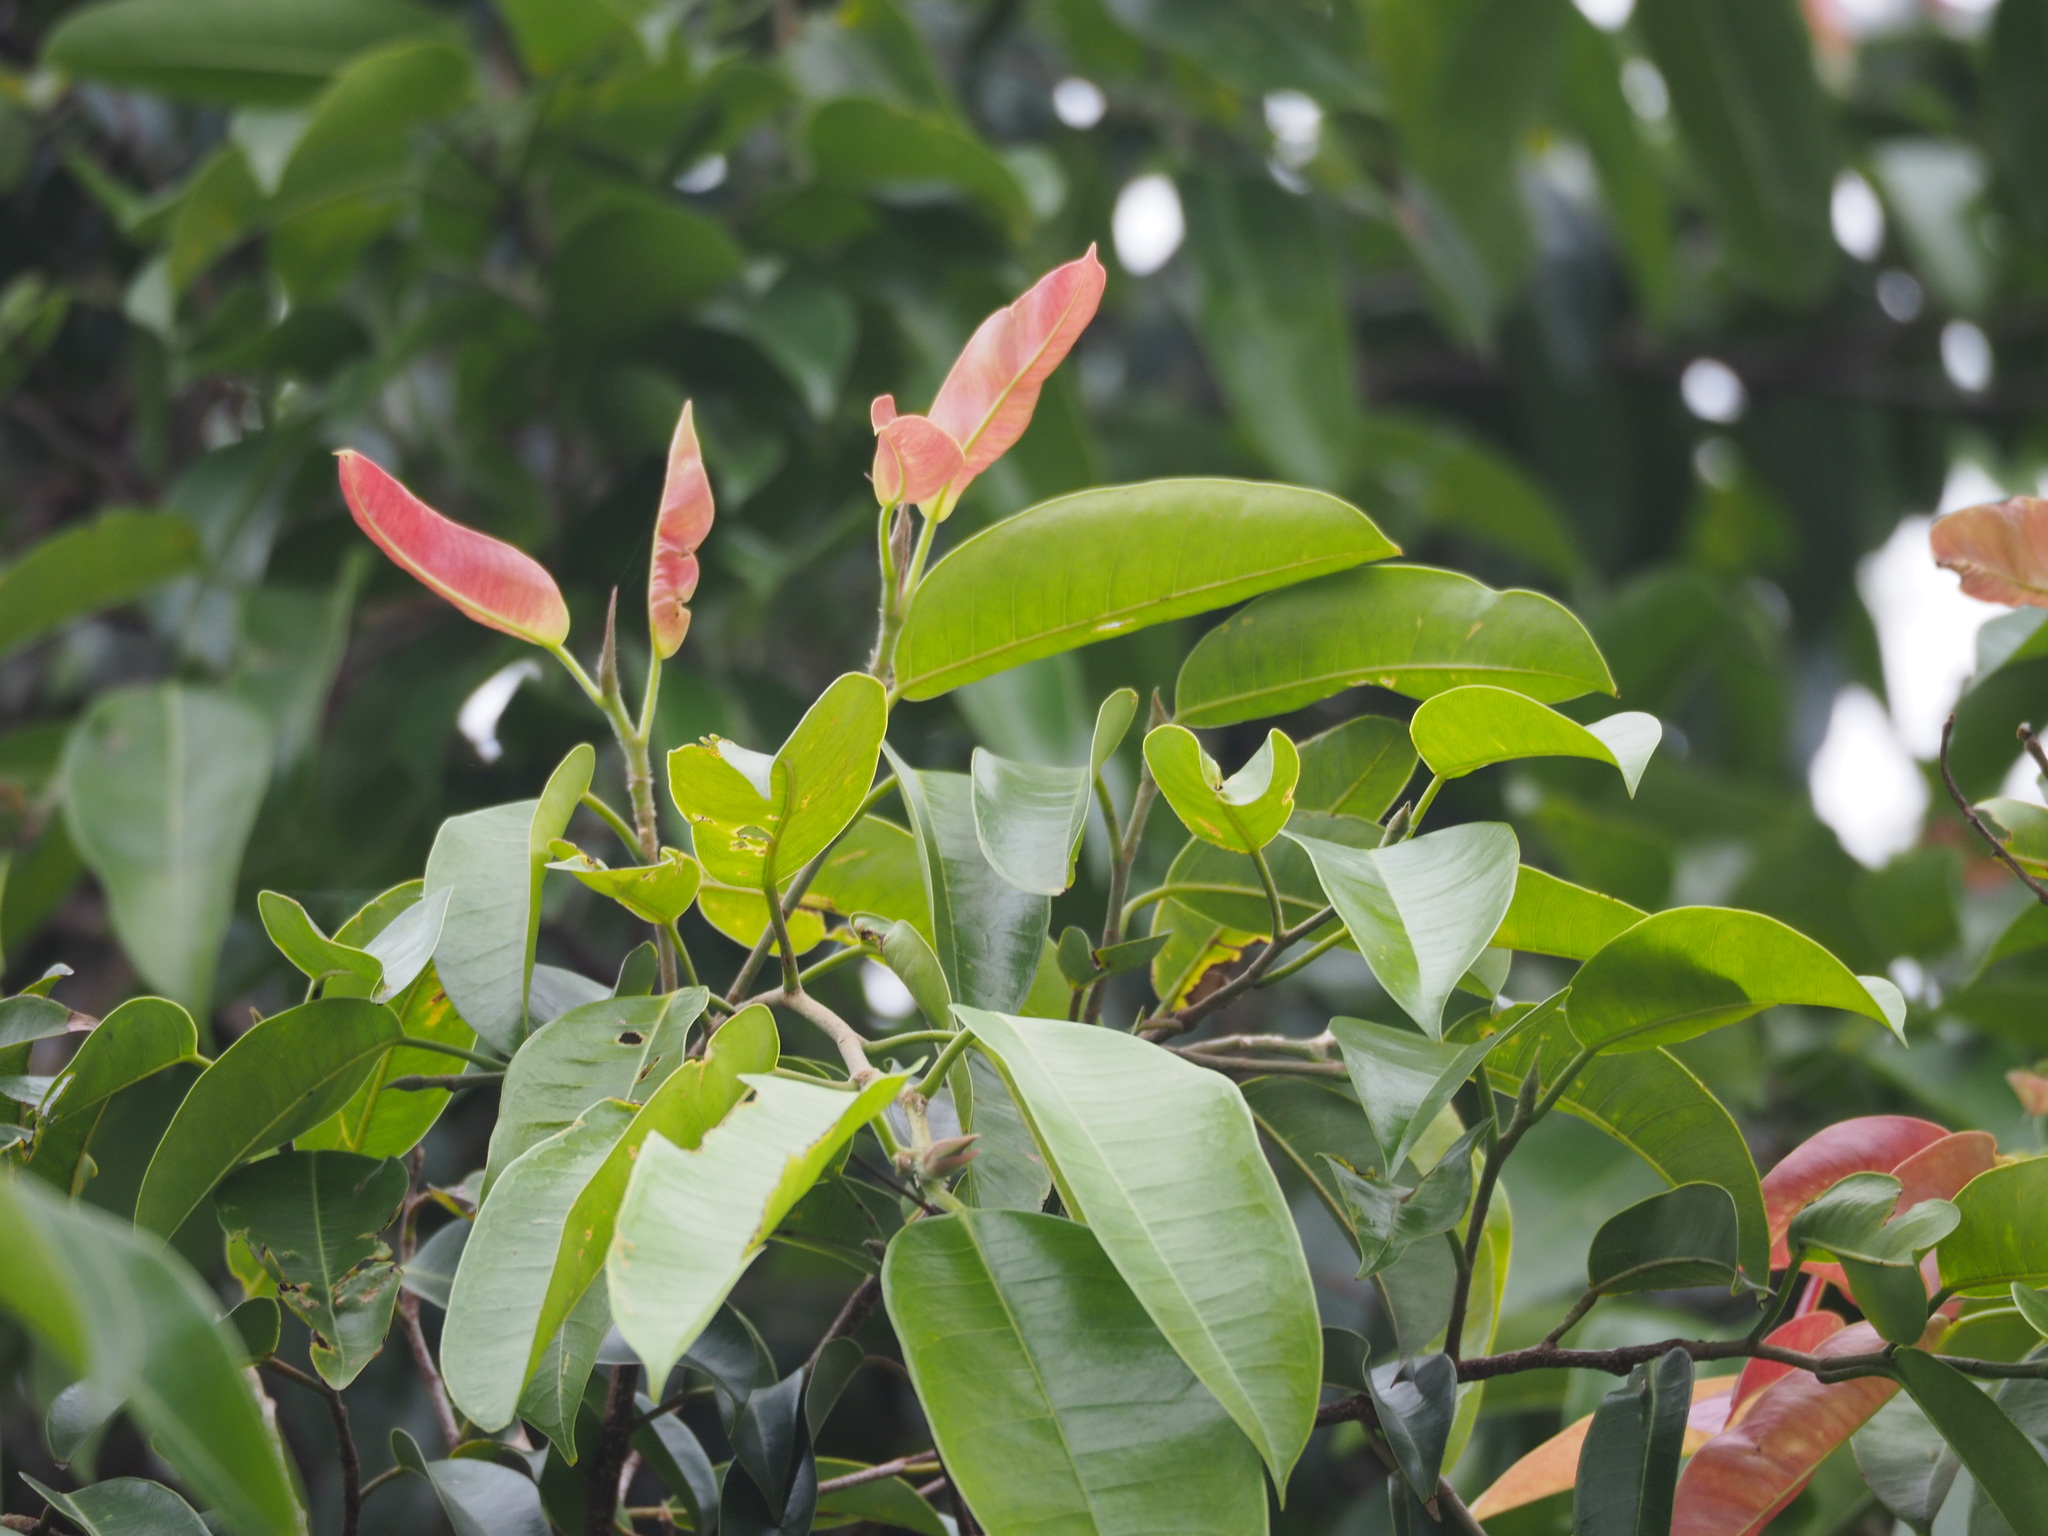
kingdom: Plantae
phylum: Tracheophyta
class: Magnoliopsida
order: Rosales
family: Moraceae
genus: Ficus
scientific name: Ficus benjamina
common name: Weeping fig
